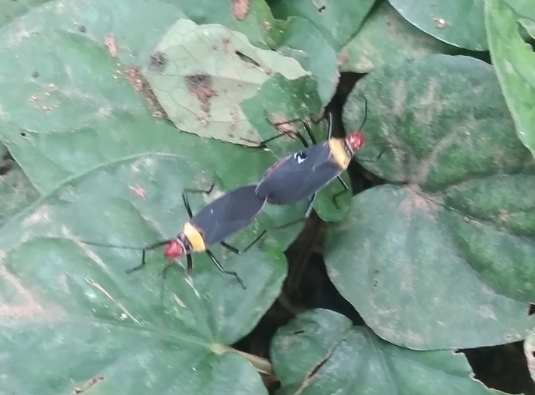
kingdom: Animalia
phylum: Arthropoda
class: Insecta
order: Hemiptera
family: Pyrrhocoridae
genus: Dysdercus
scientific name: Dysdercus
